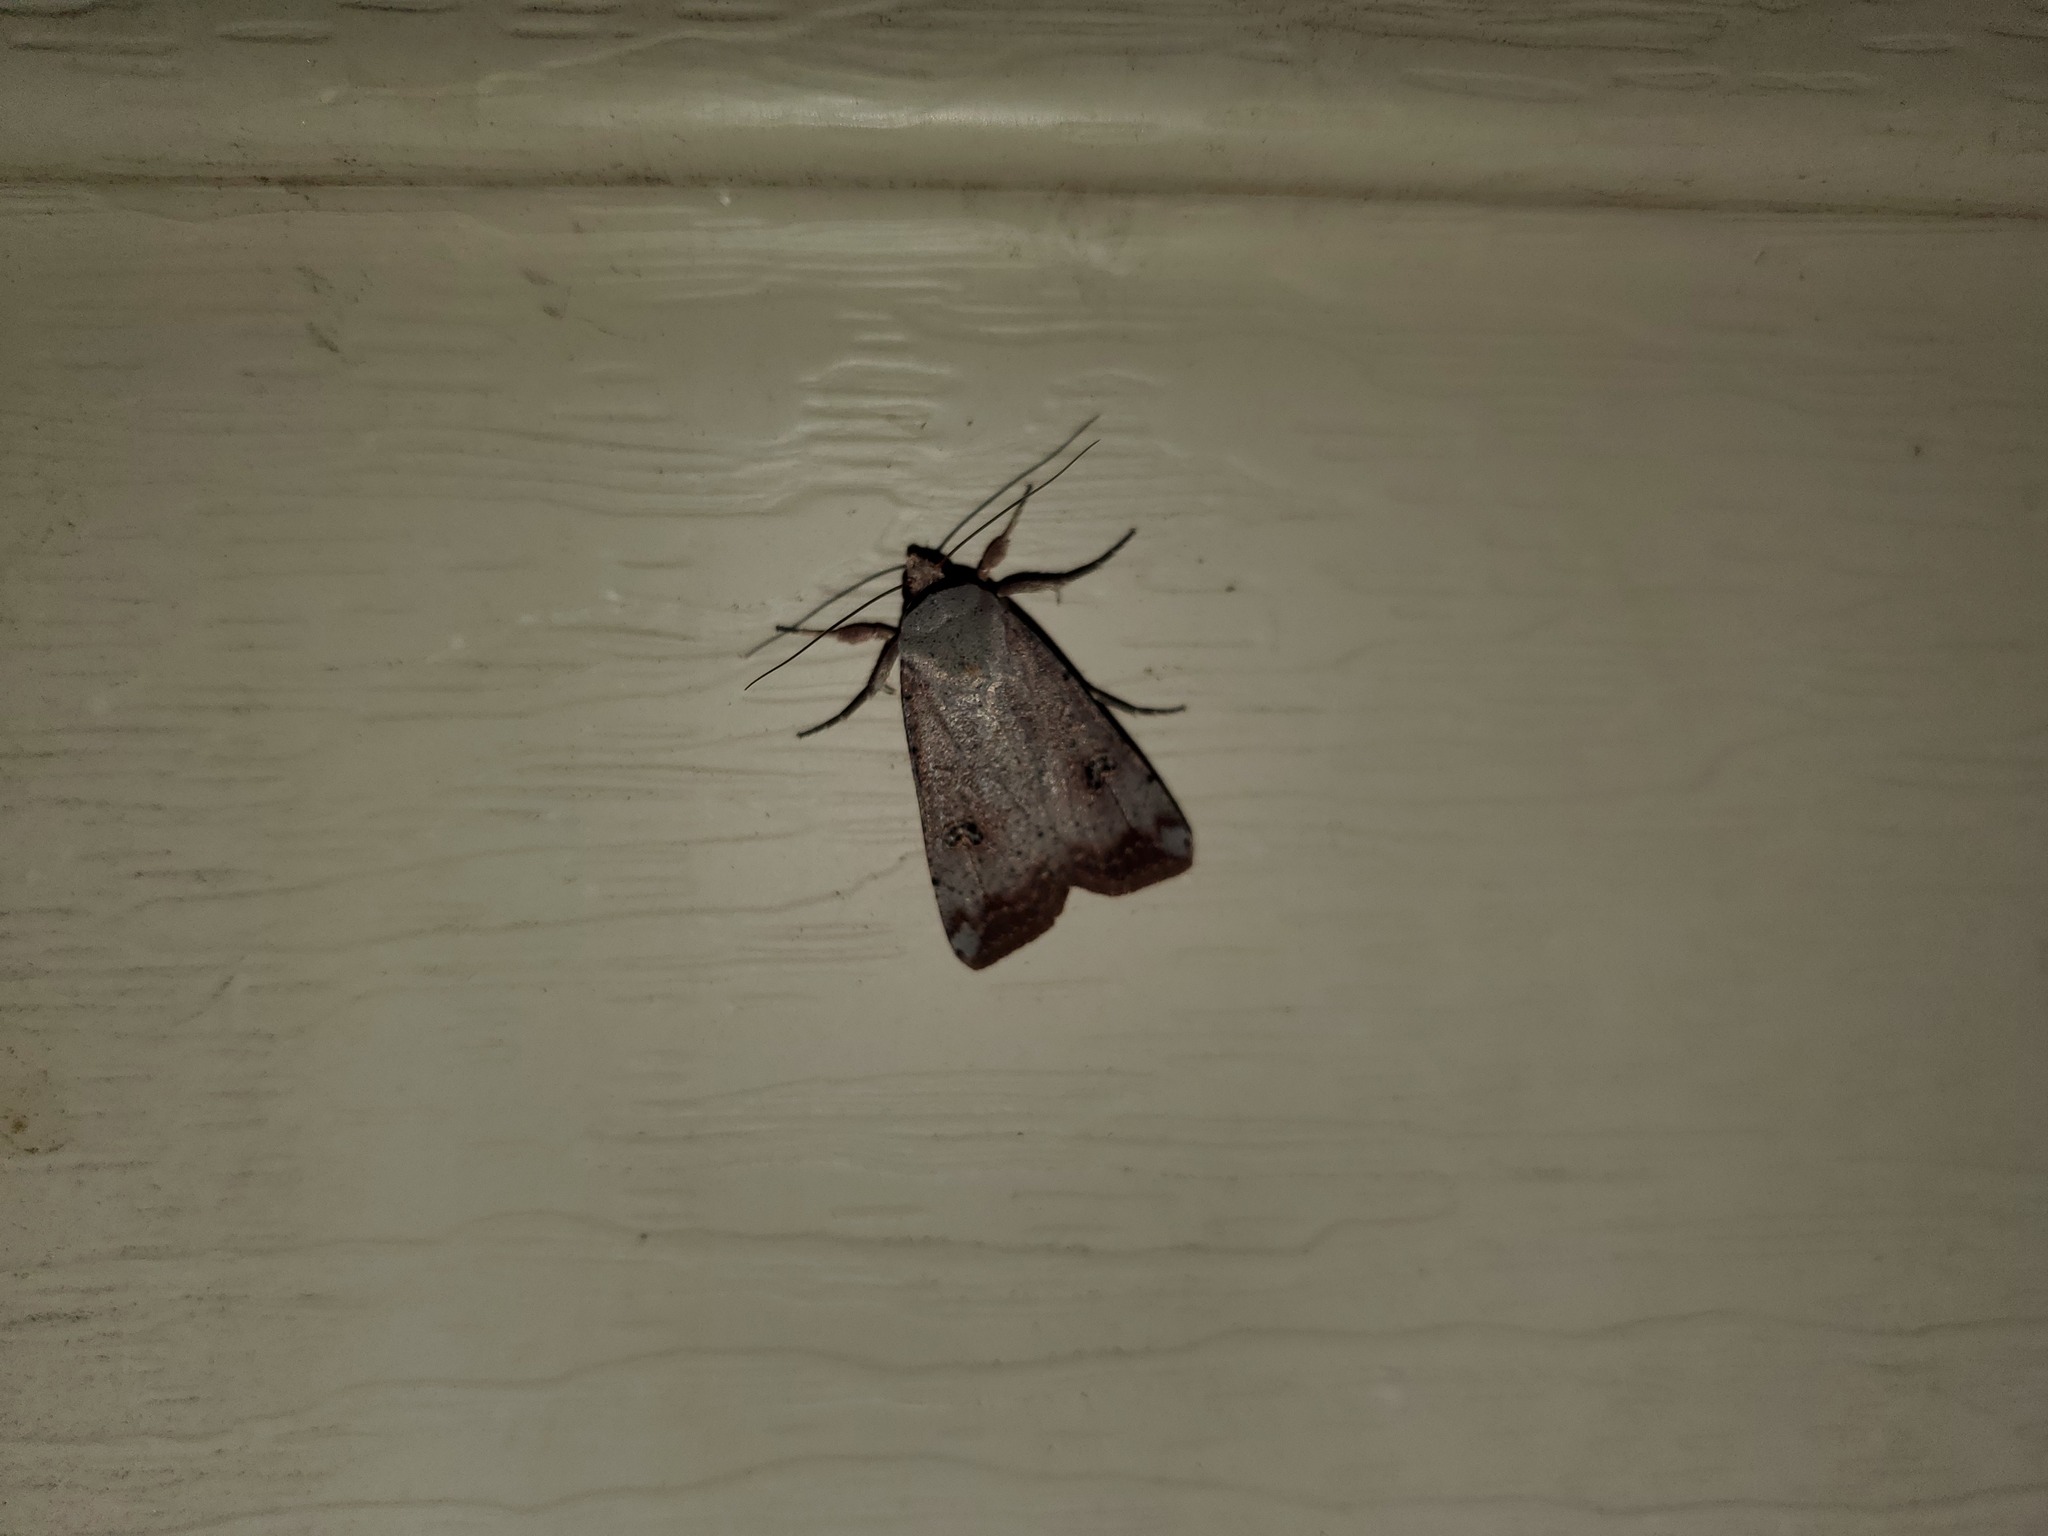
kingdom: Animalia
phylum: Arthropoda
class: Insecta
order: Lepidoptera
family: Noctuidae
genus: Anicla
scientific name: Anicla infecta
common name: Green cutworm
